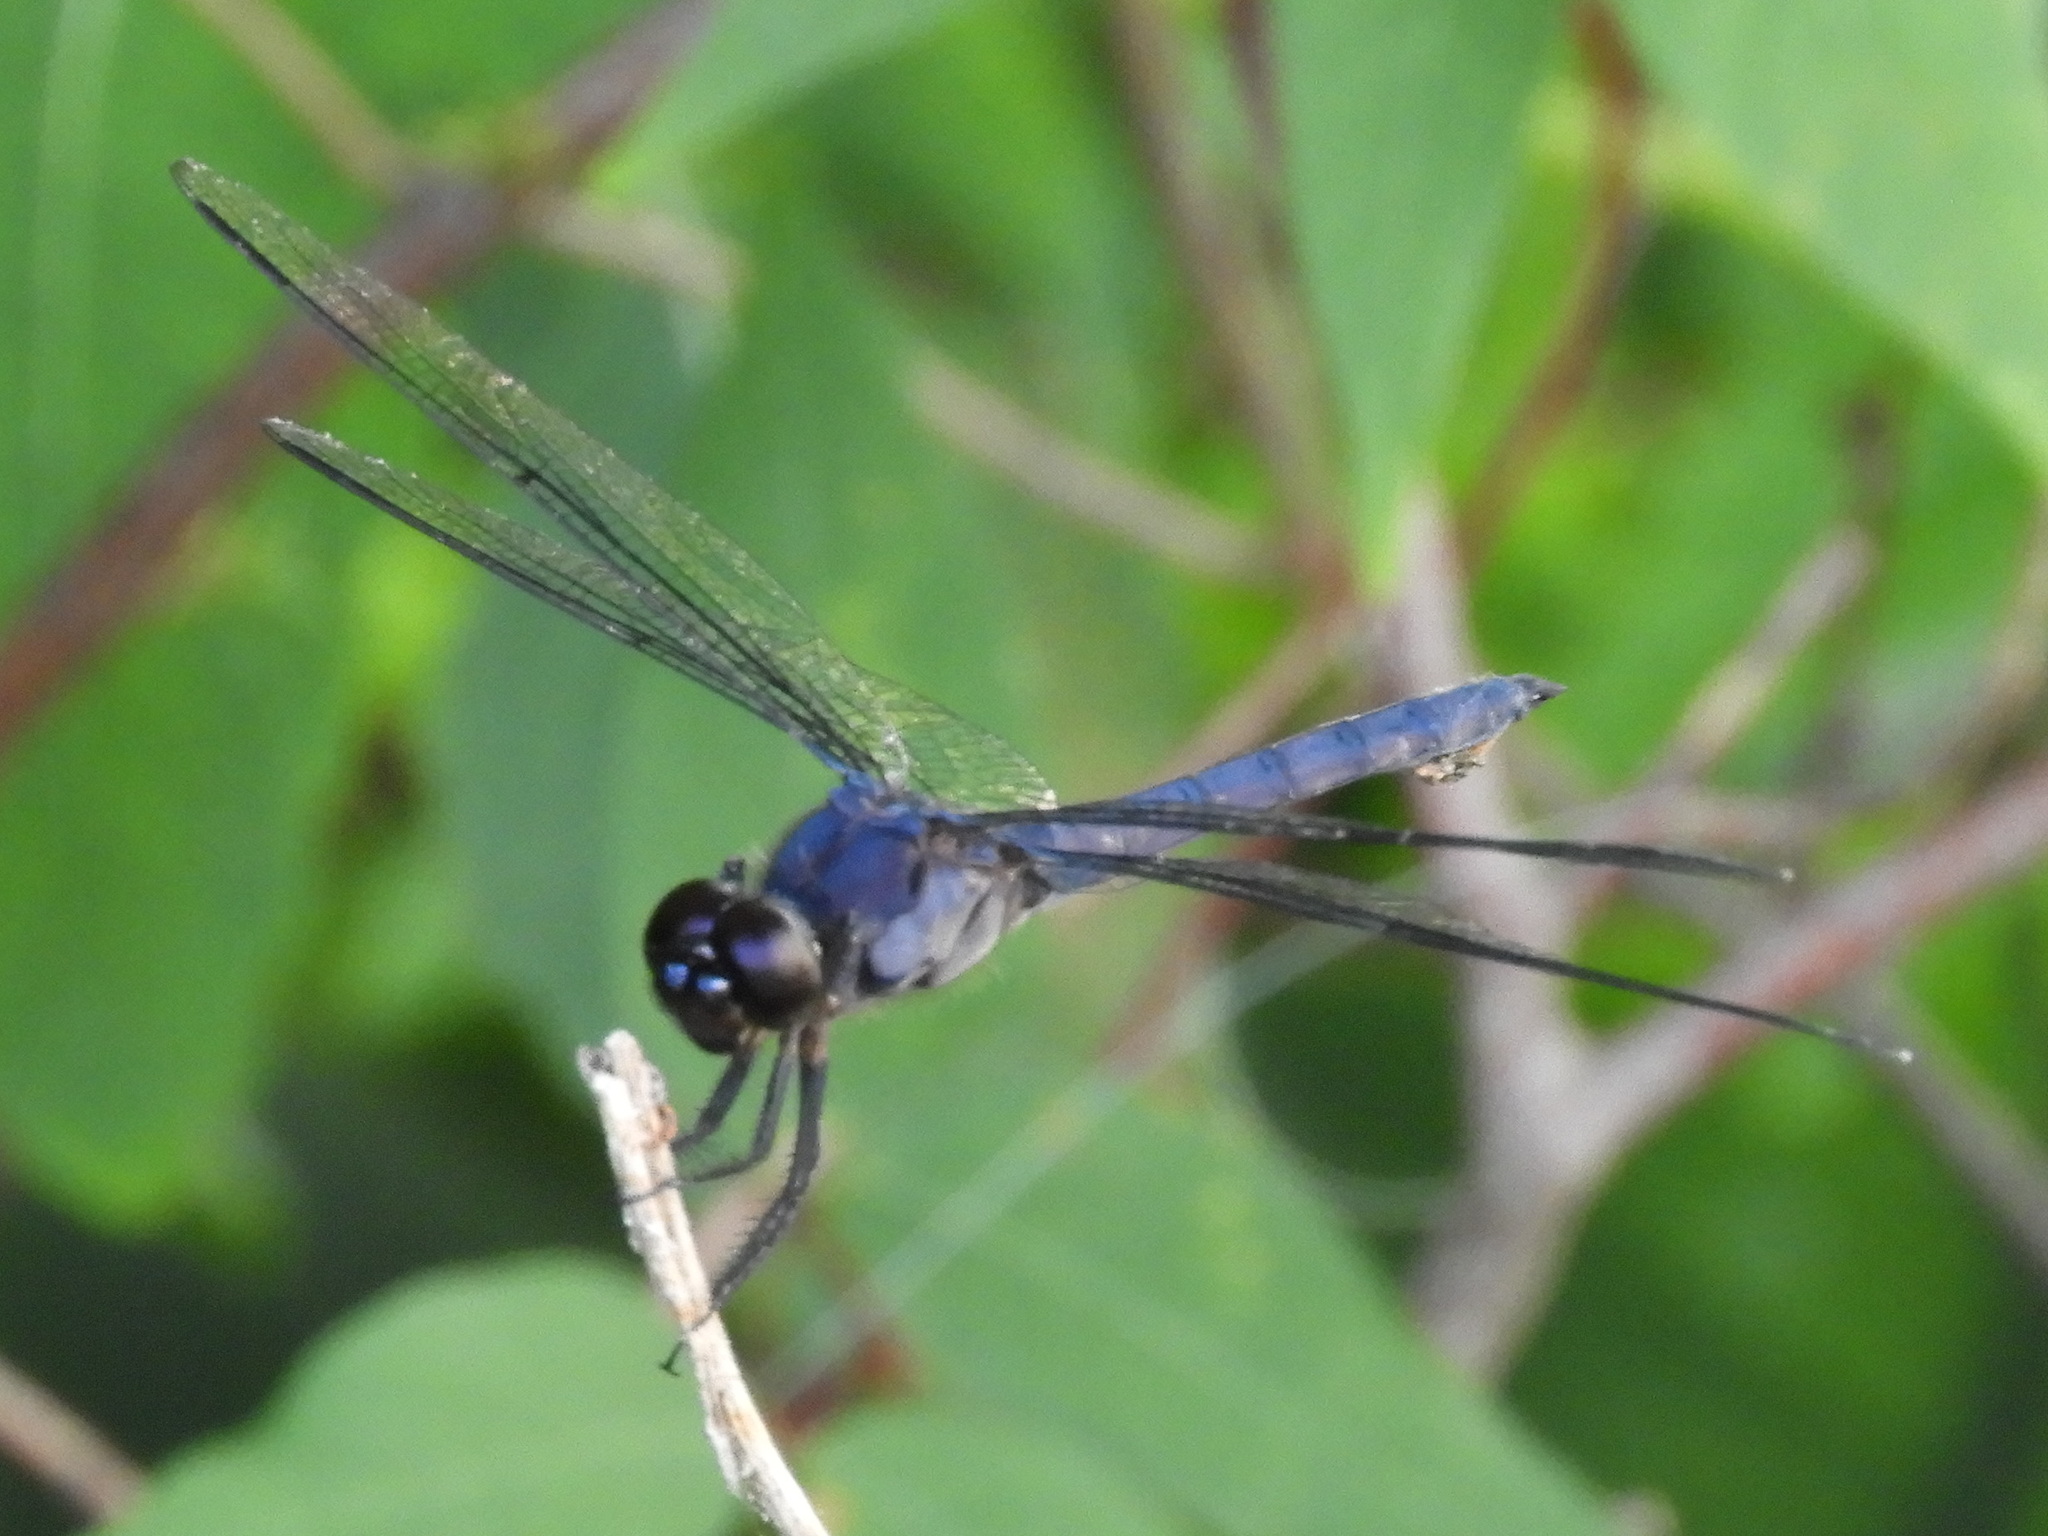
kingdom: Animalia
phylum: Arthropoda
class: Insecta
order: Odonata
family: Libellulidae
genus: Libellula
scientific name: Libellula incesta
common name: Slaty skimmer
